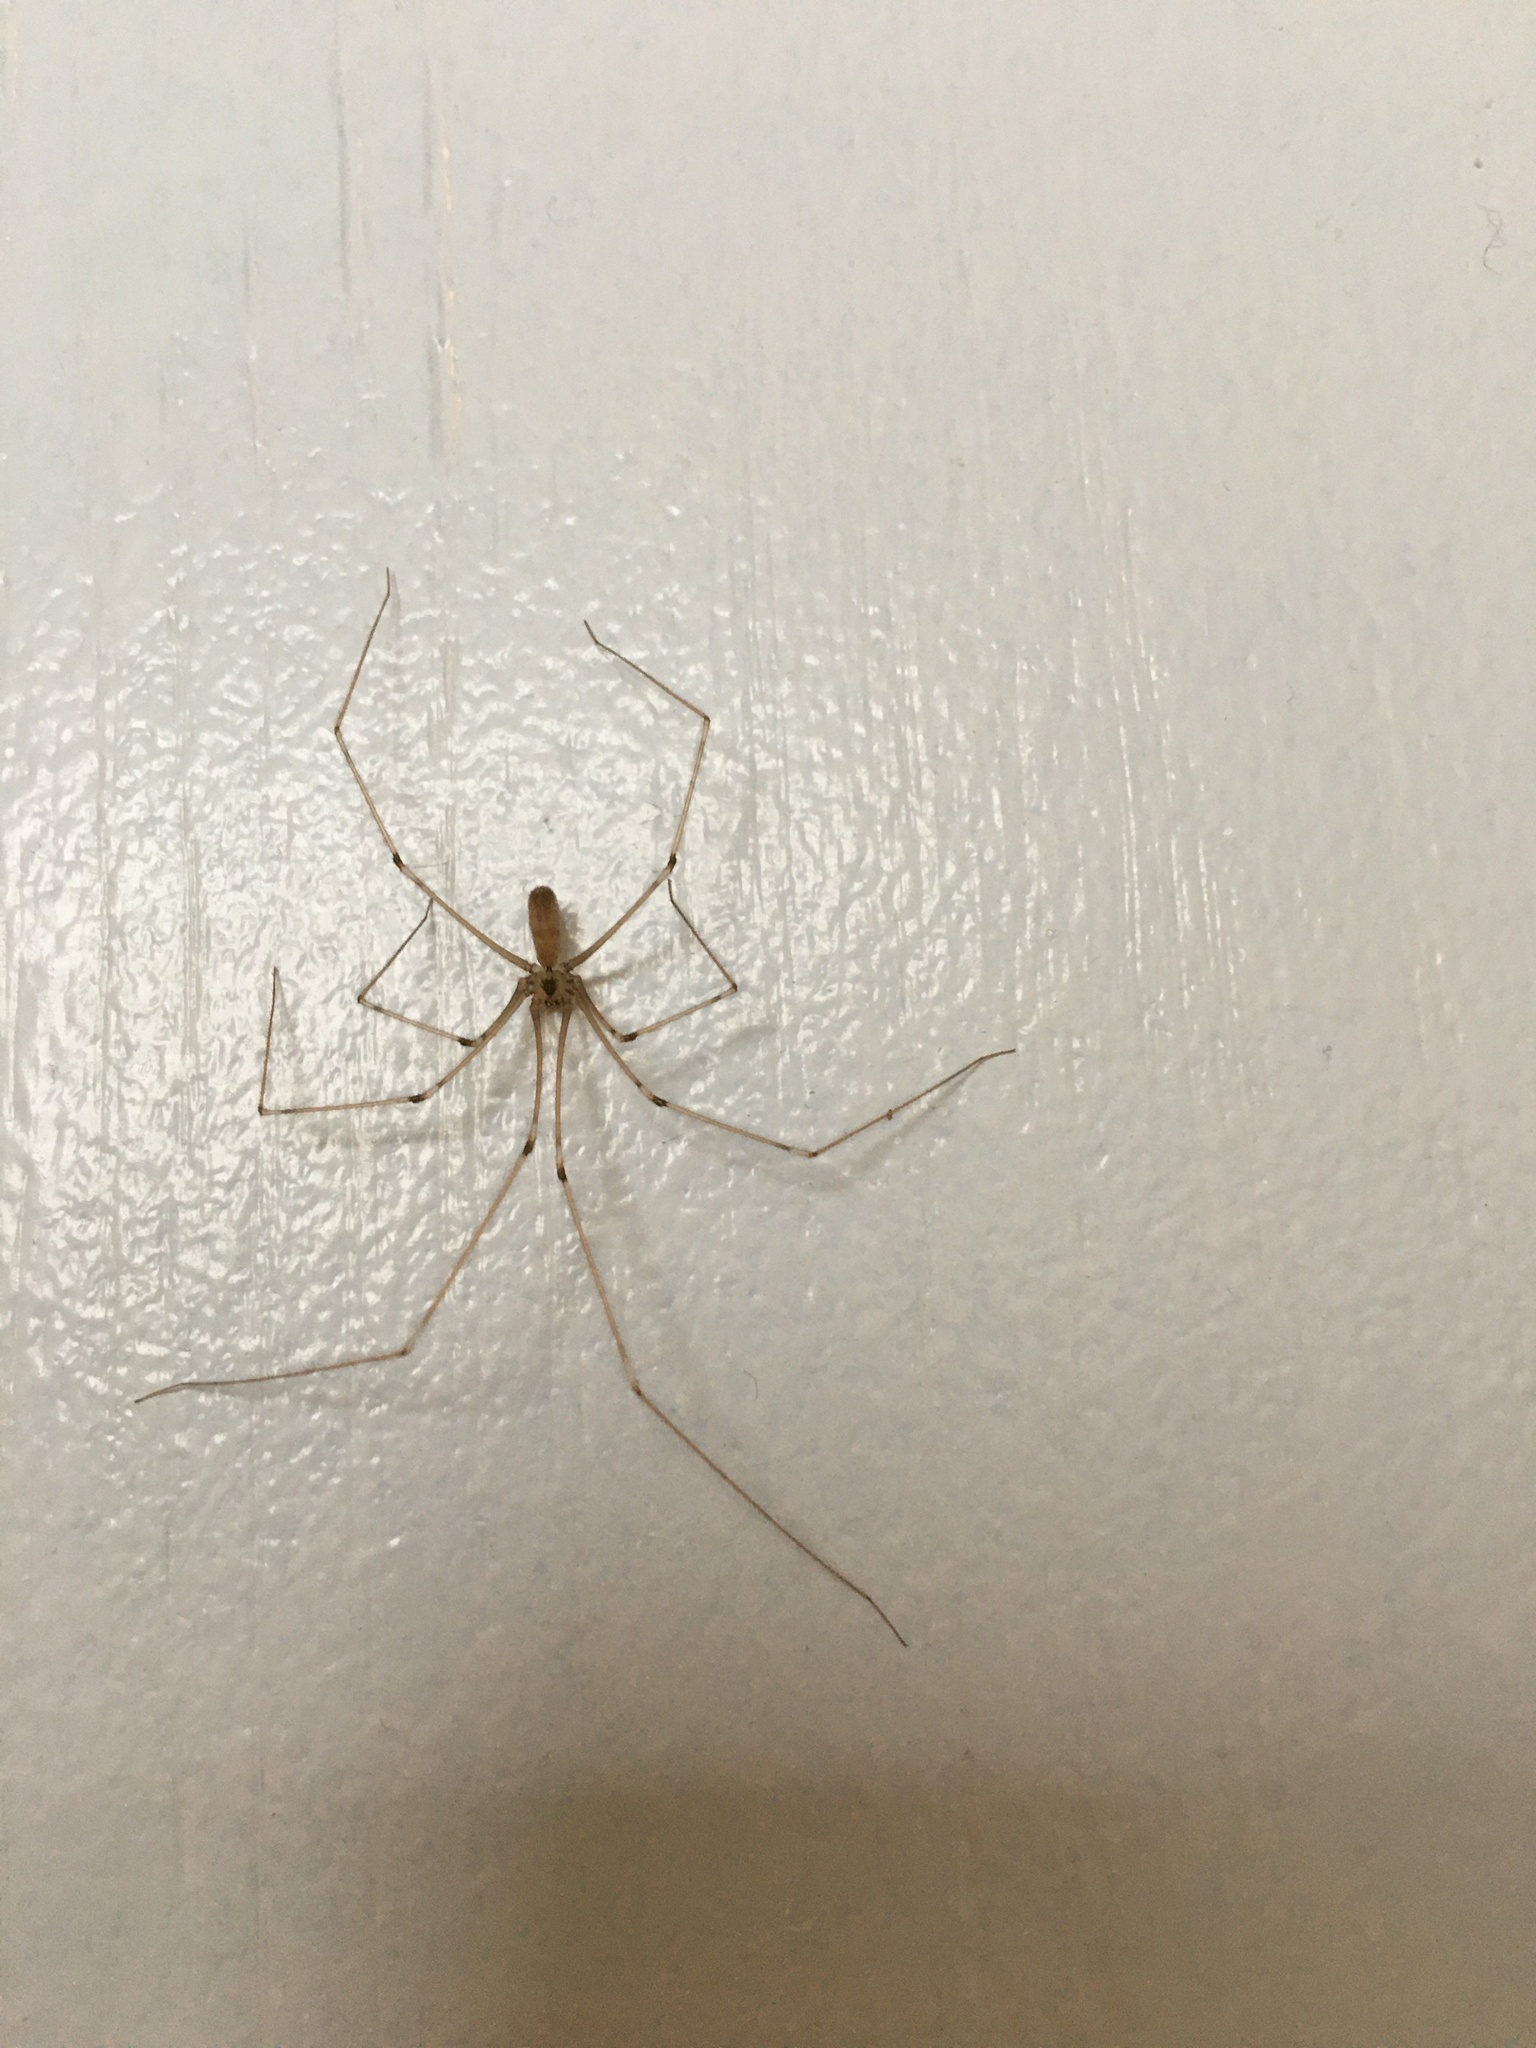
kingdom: Animalia
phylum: Arthropoda
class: Arachnida
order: Araneae
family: Pholcidae
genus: Pholcus
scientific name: Pholcus phalangioides
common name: Longbodied cellar spider
